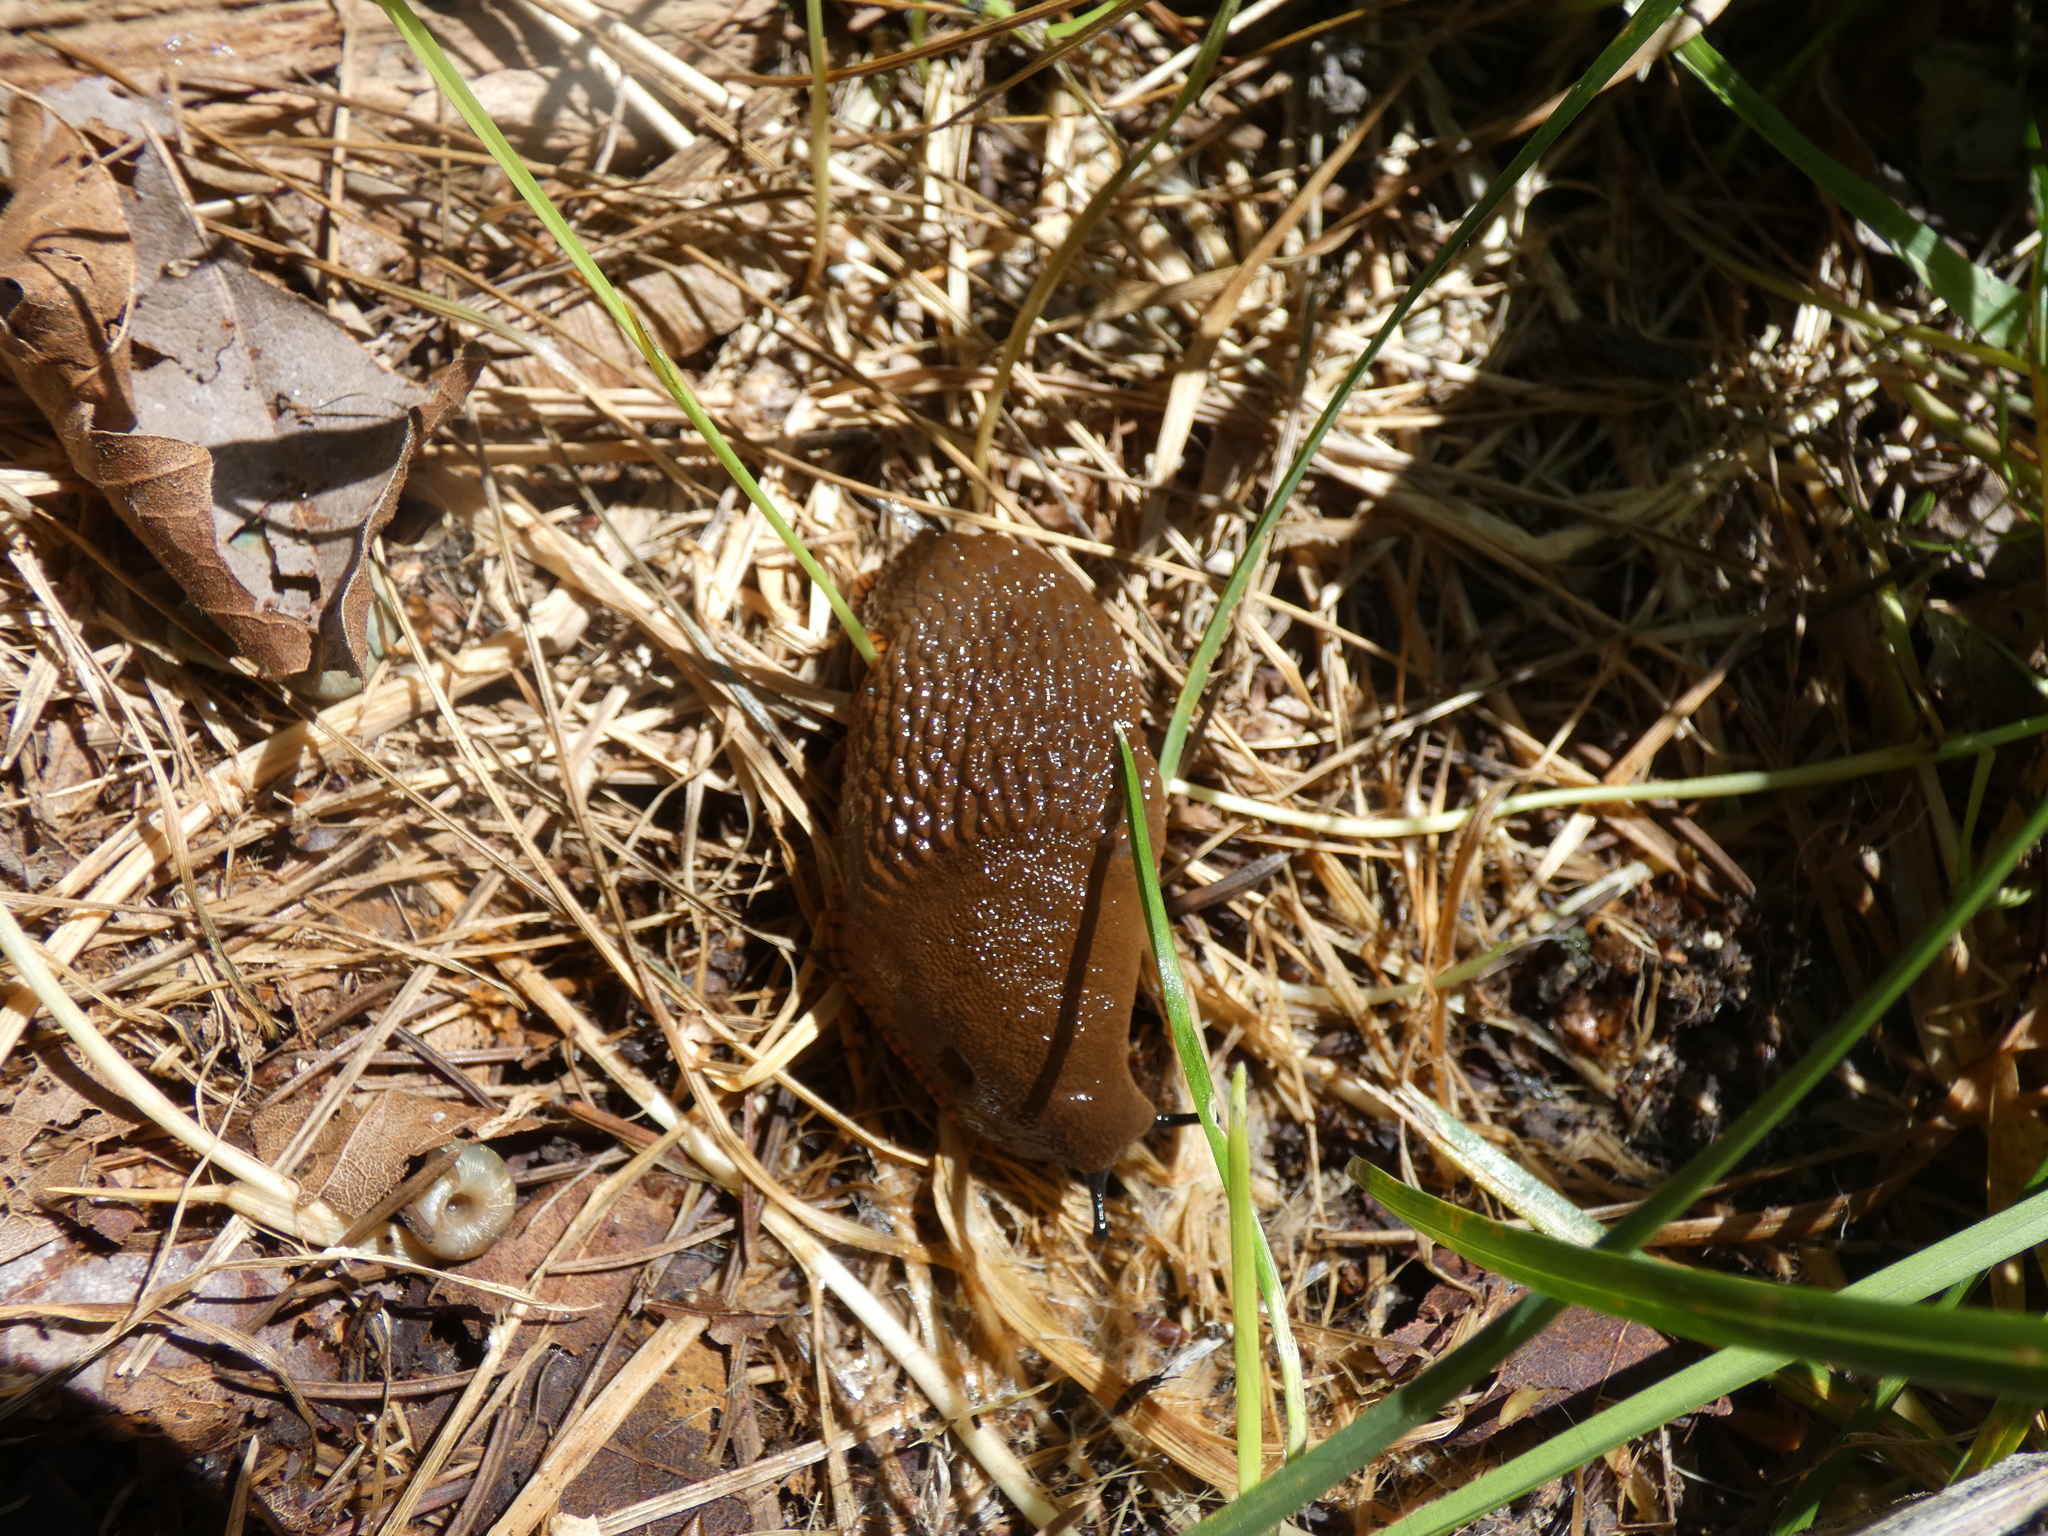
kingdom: Animalia
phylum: Mollusca
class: Gastropoda
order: Stylommatophora
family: Arionidae
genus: Arion
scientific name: Arion
